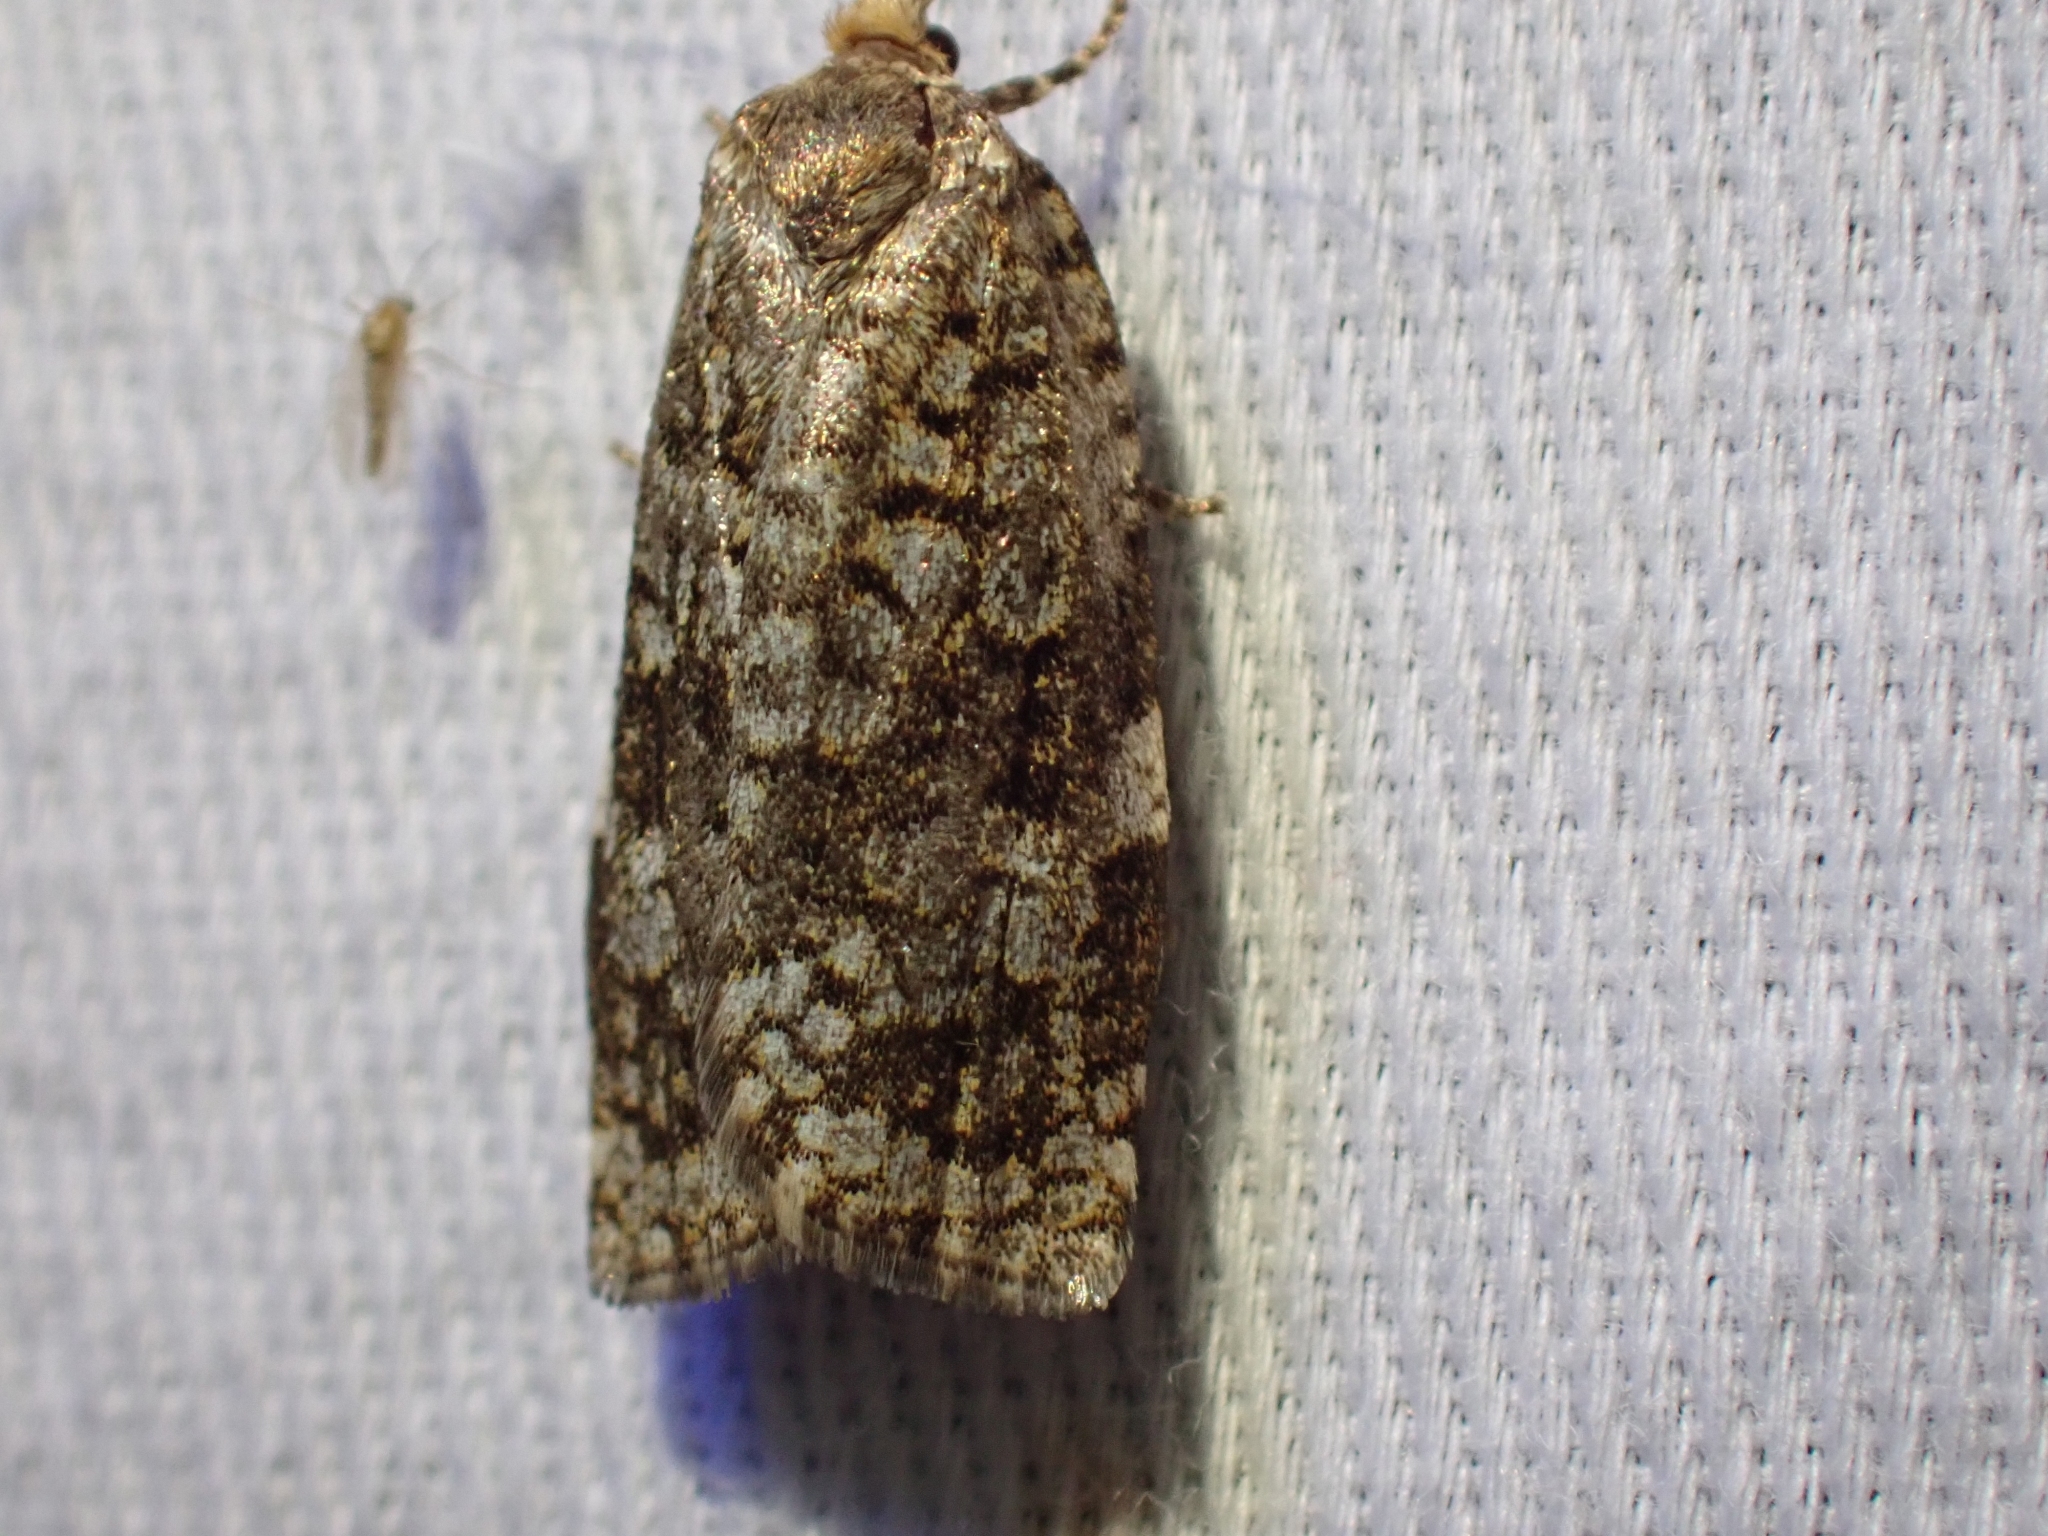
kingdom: Animalia
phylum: Arthropoda
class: Insecta
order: Lepidoptera
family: Tortricidae
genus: Choristoneura
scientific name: Choristoneura occidentalis
